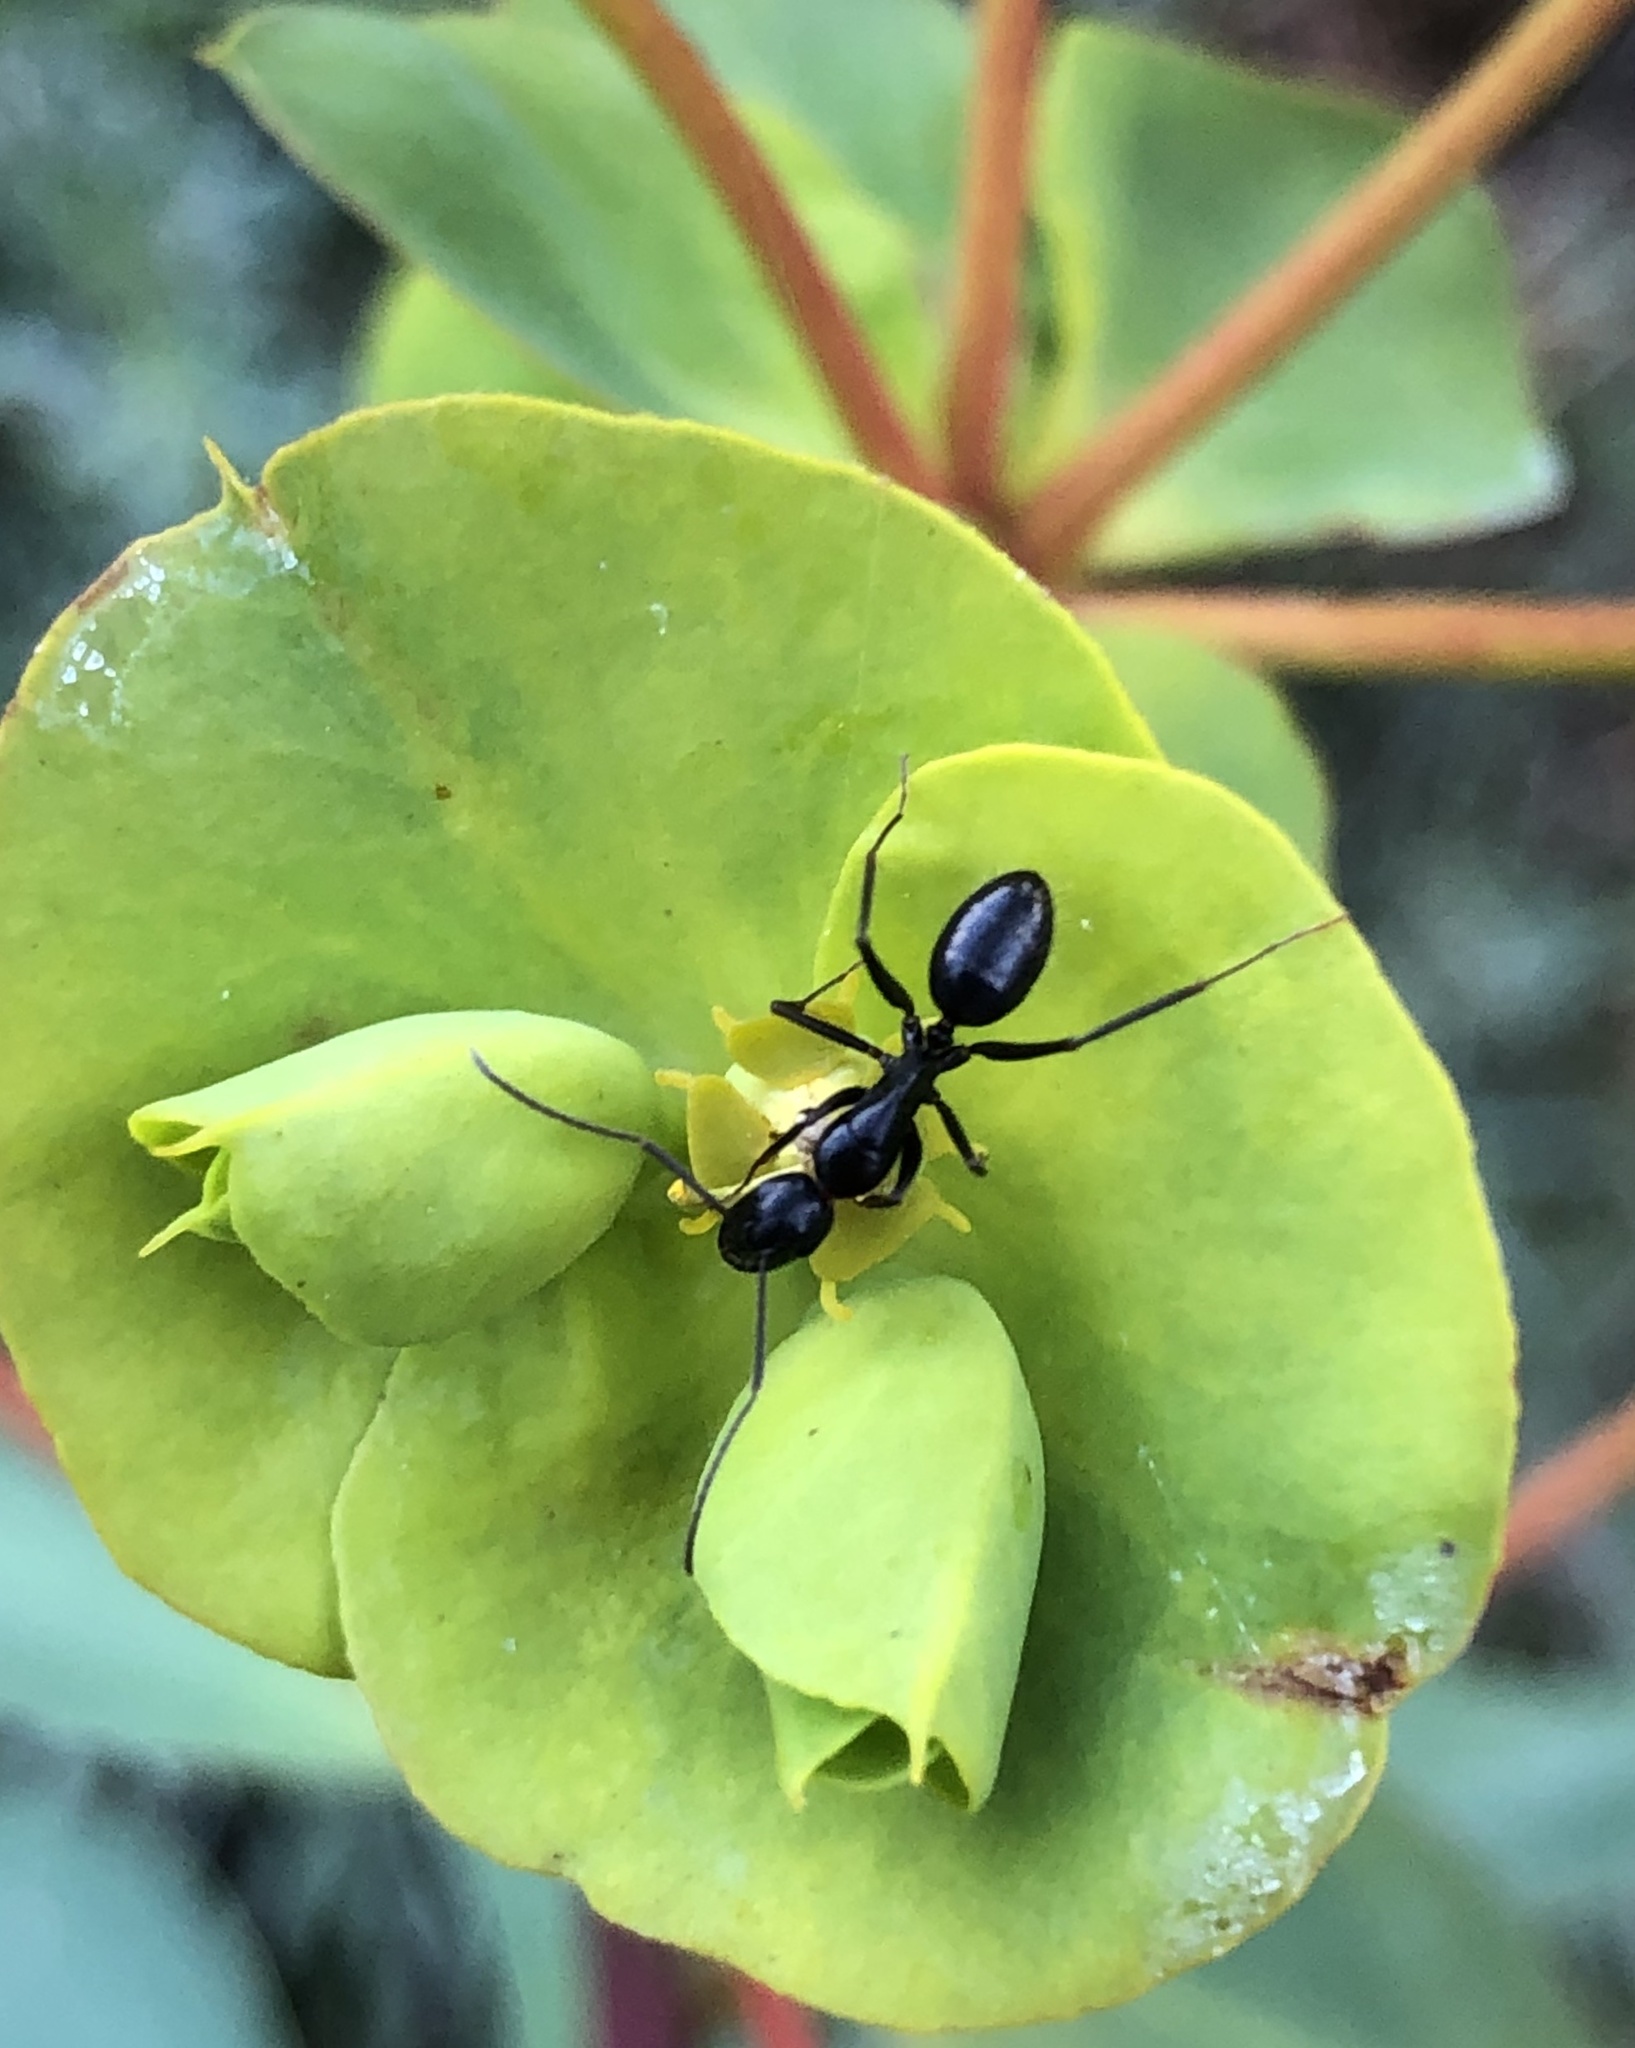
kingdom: Animalia
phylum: Arthropoda
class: Insecta
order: Hymenoptera
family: Formicidae
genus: Camponotus
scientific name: Camponotus aethiops
